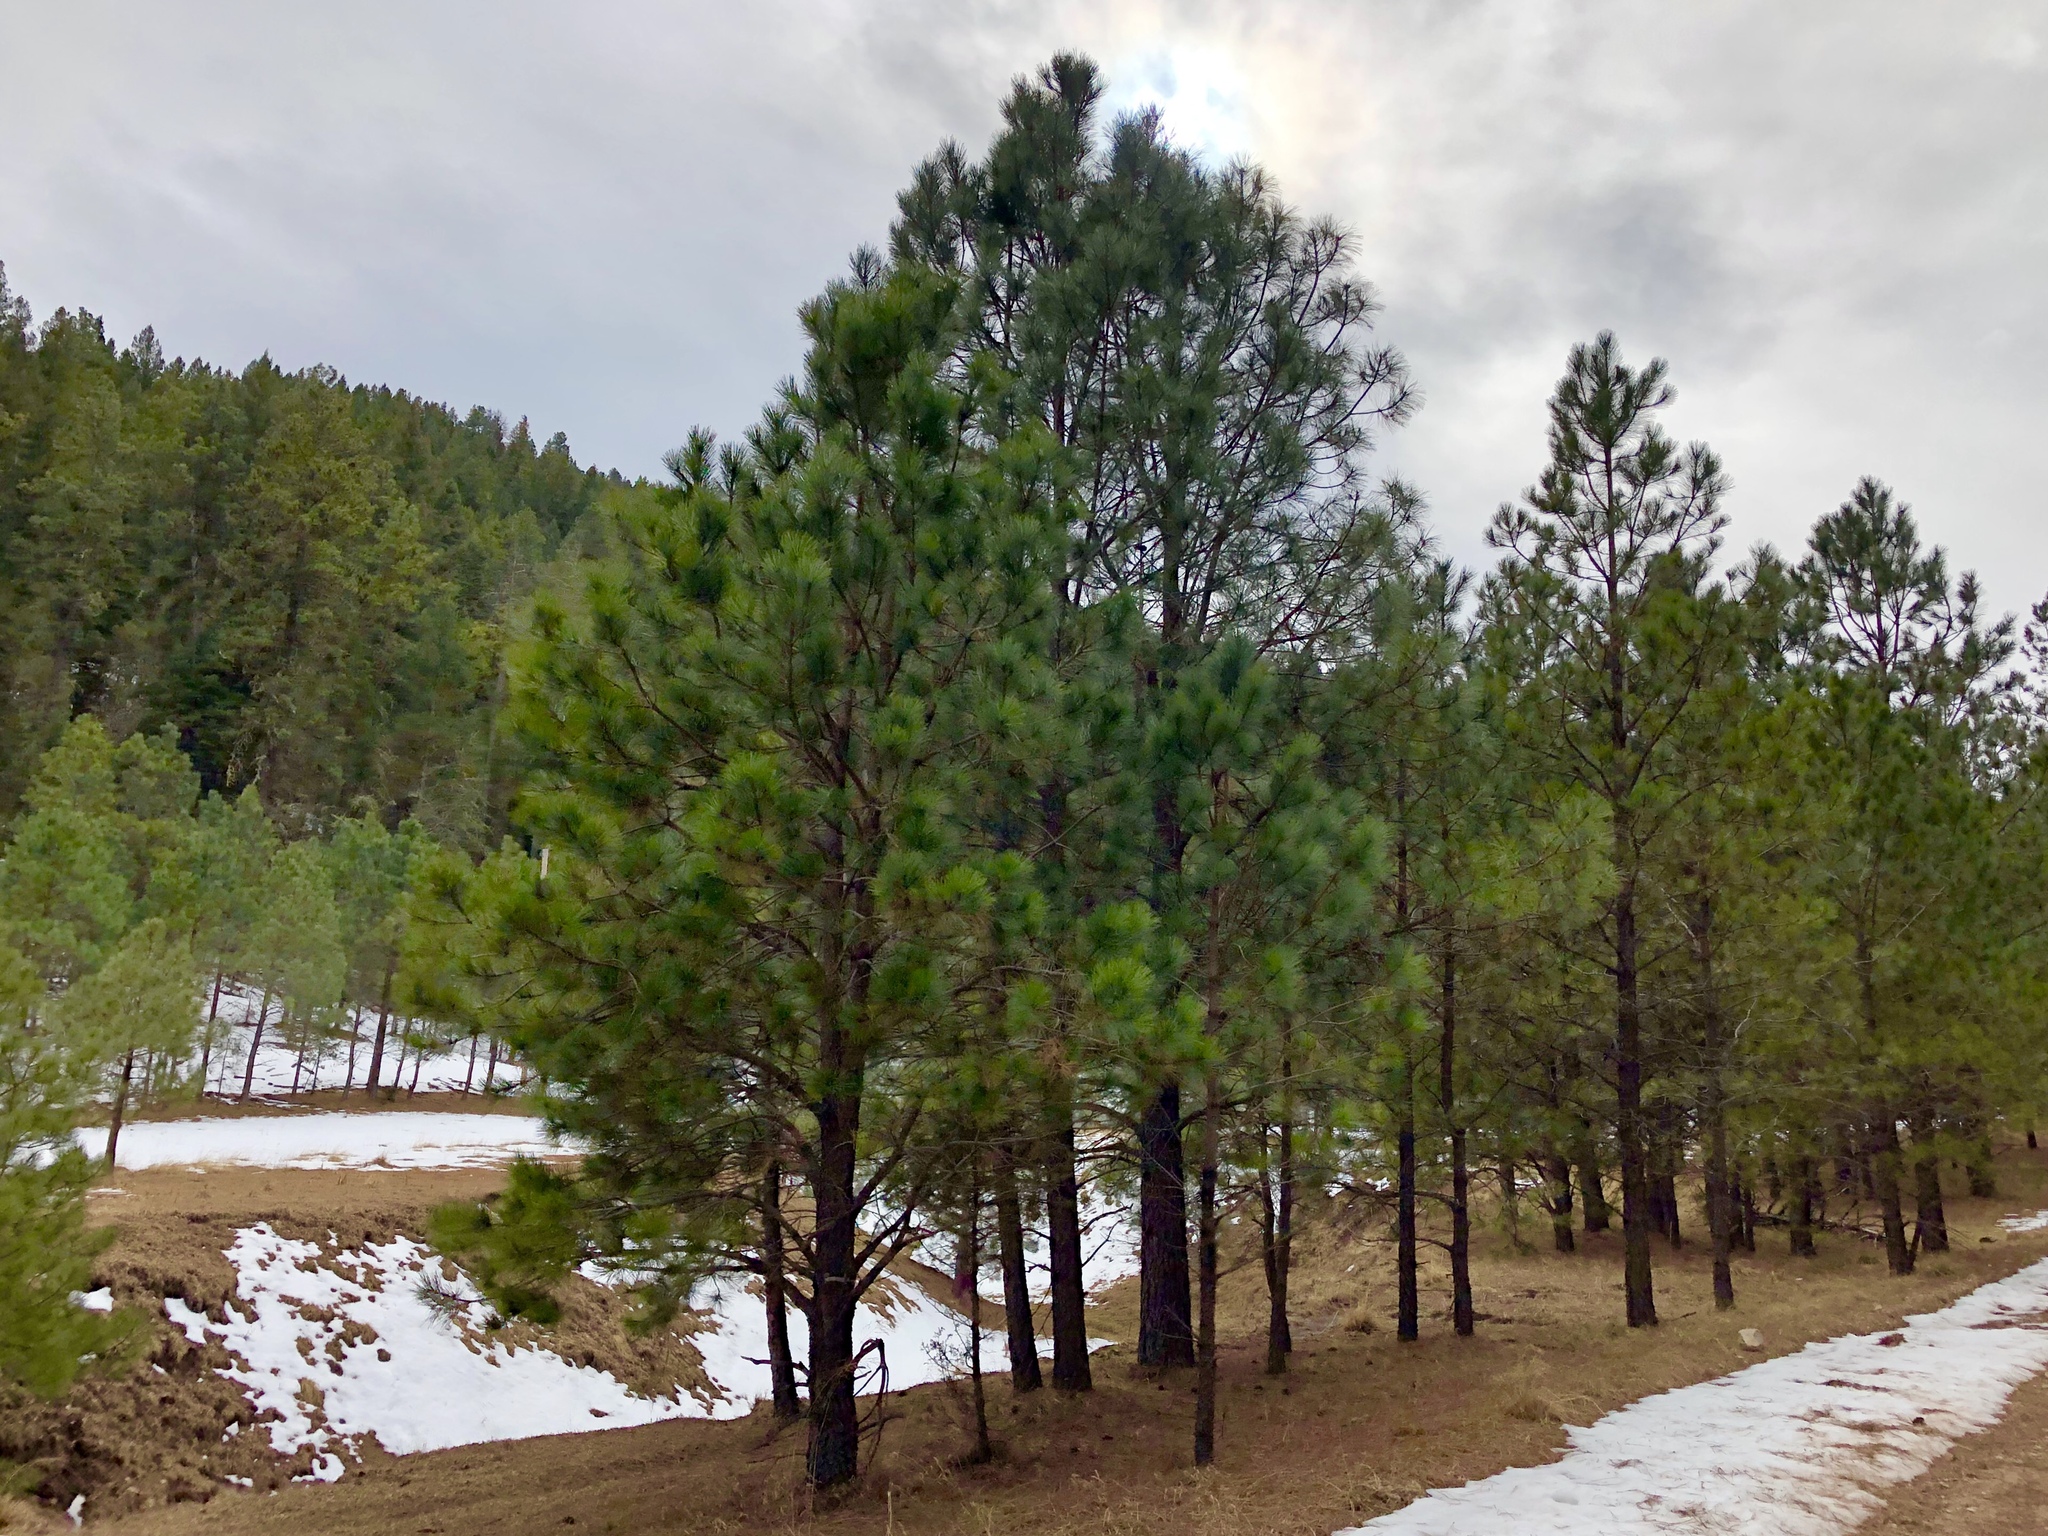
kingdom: Plantae
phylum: Tracheophyta
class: Pinopsida
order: Pinales
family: Pinaceae
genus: Pinus
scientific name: Pinus ponderosa
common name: Western yellow-pine
